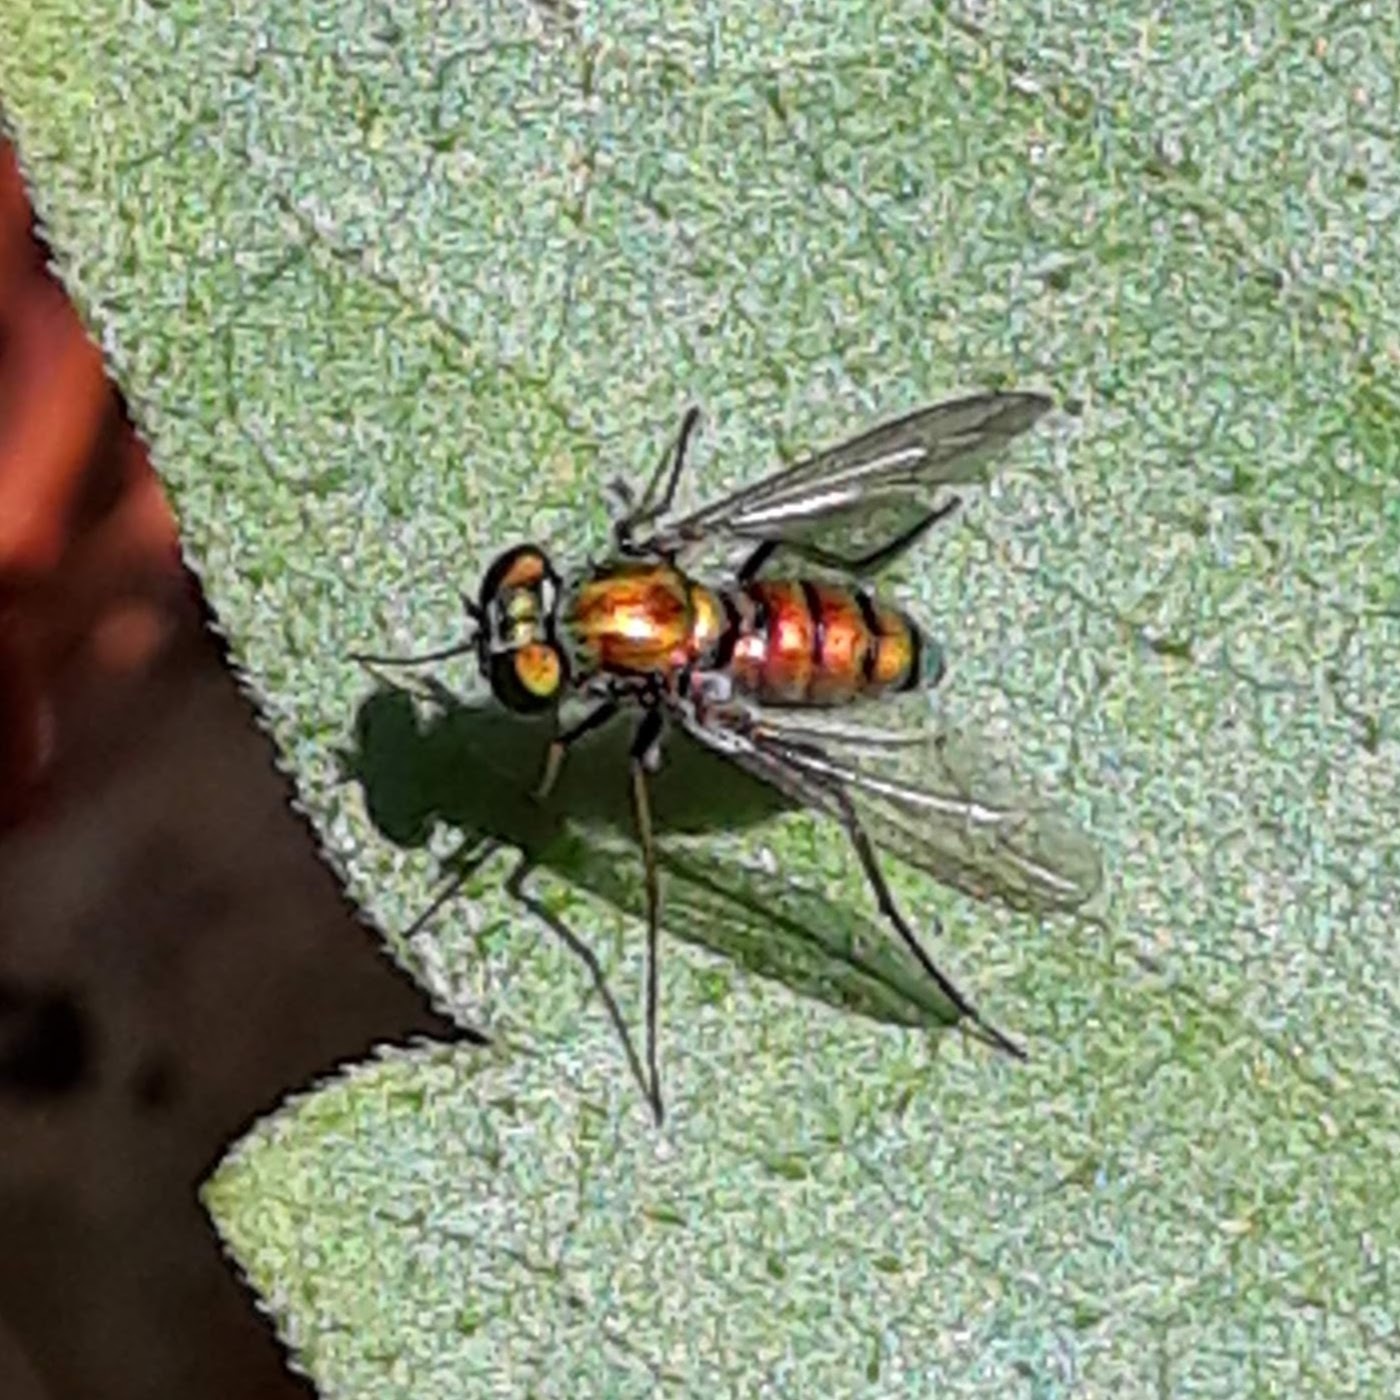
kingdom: Animalia
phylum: Arthropoda
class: Insecta
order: Diptera
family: Dolichopodidae
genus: Condylostylus
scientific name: Condylostylus
